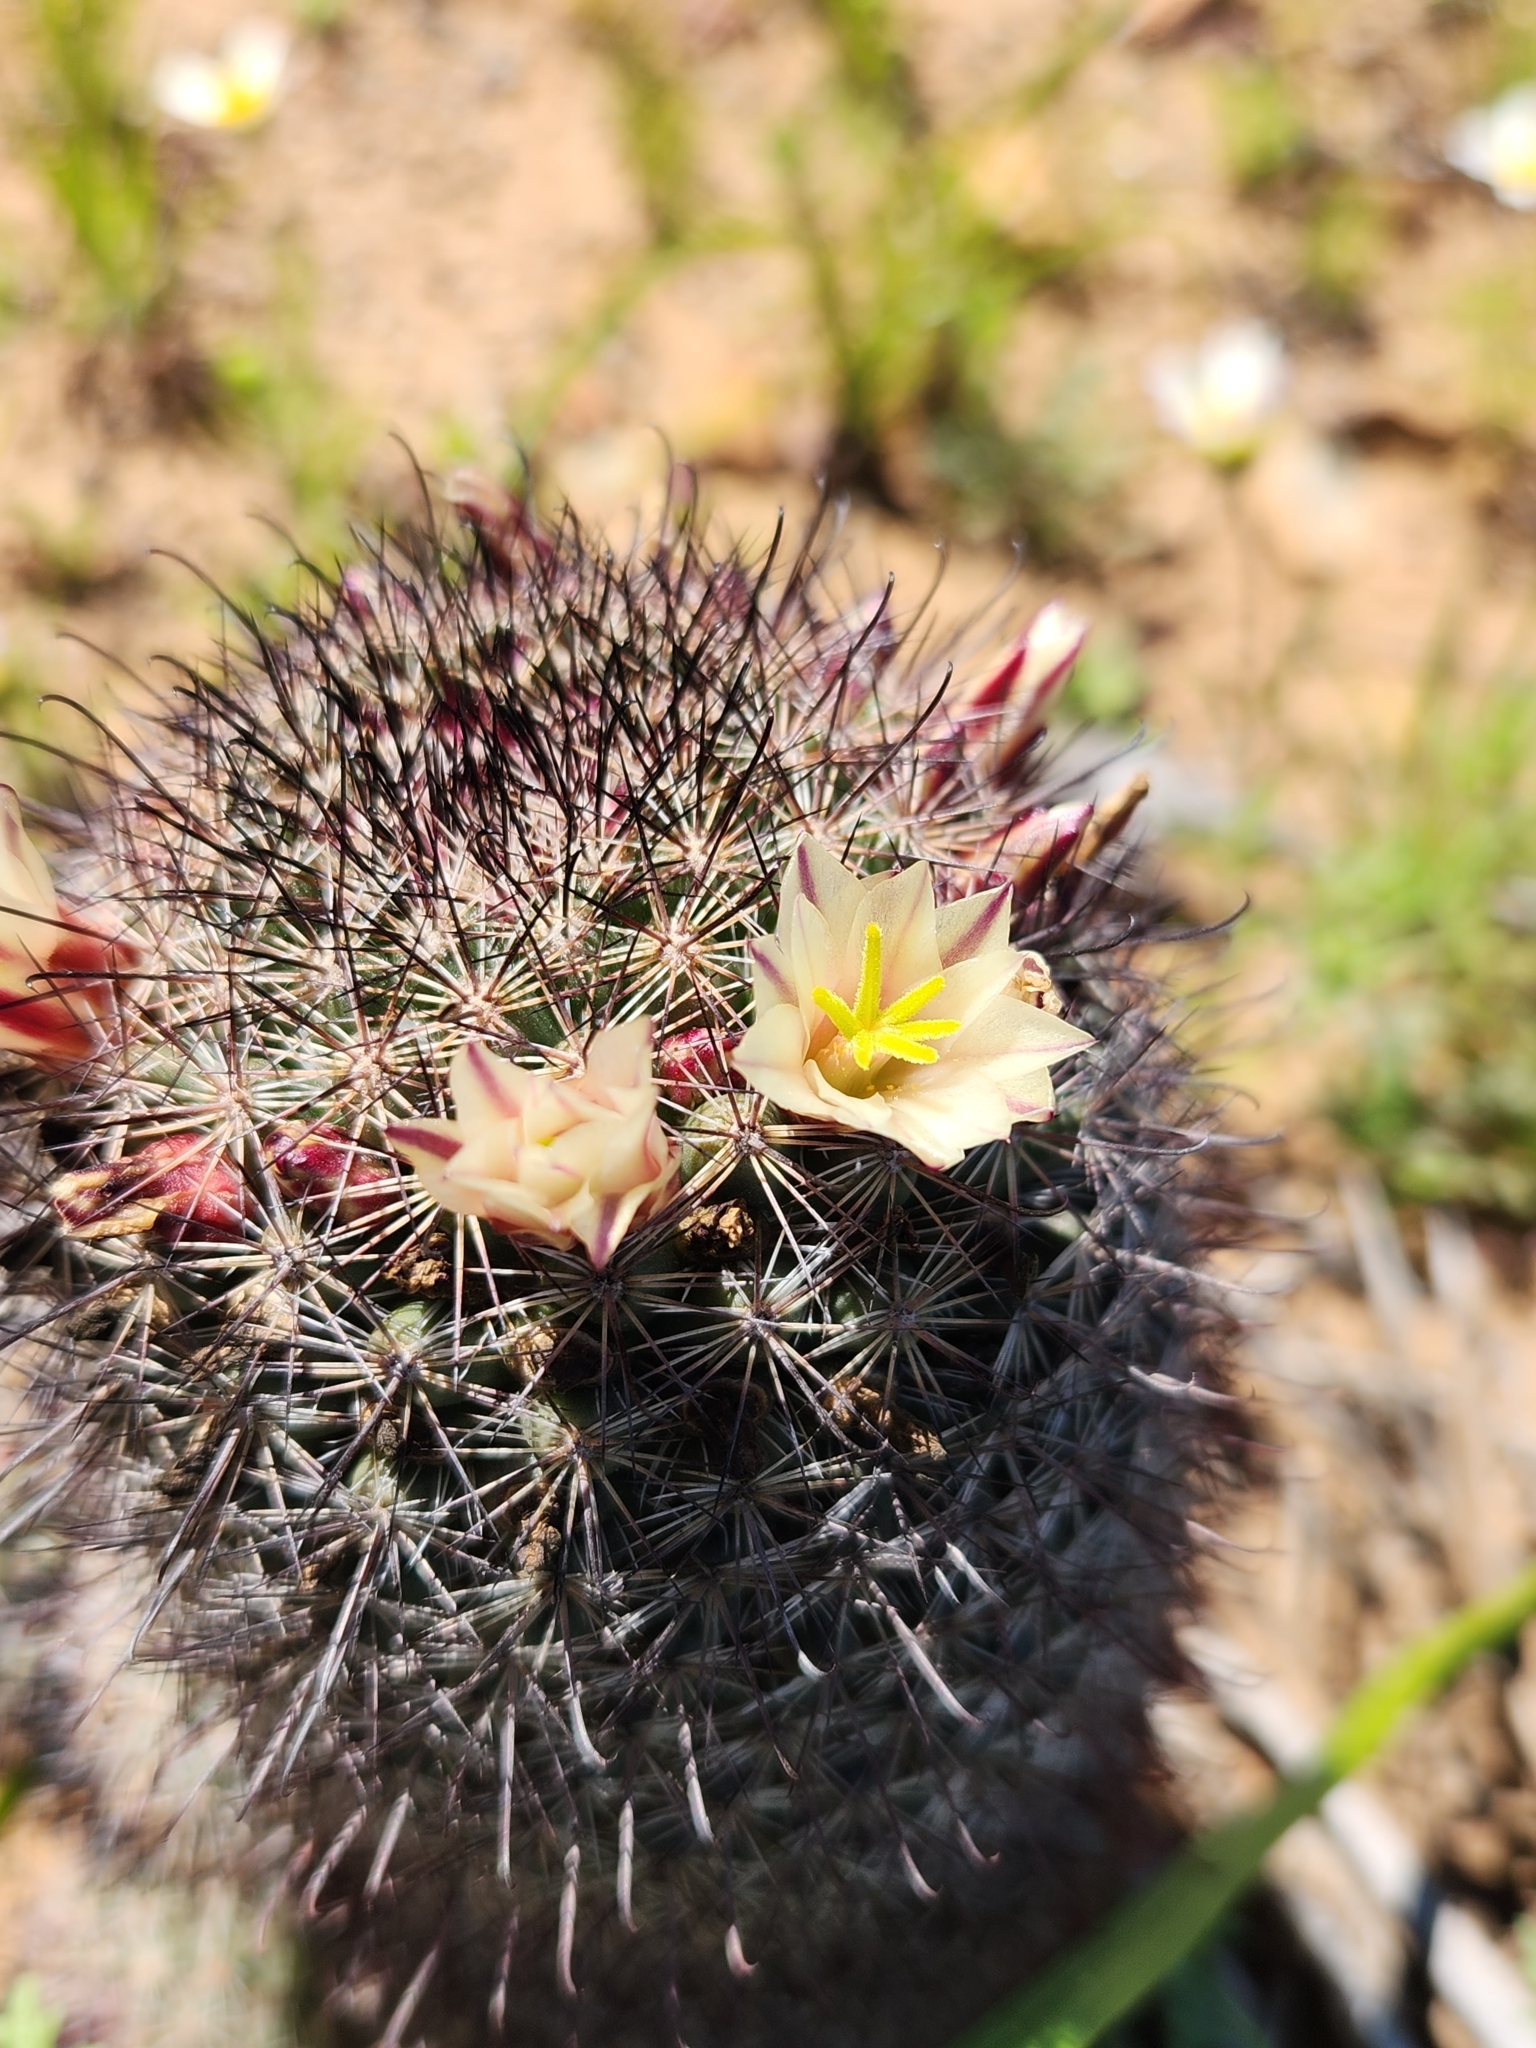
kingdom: Plantae
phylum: Tracheophyta
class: Magnoliopsida
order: Caryophyllales
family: Cactaceae
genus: Cochemiea
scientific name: Cochemiea dioica
